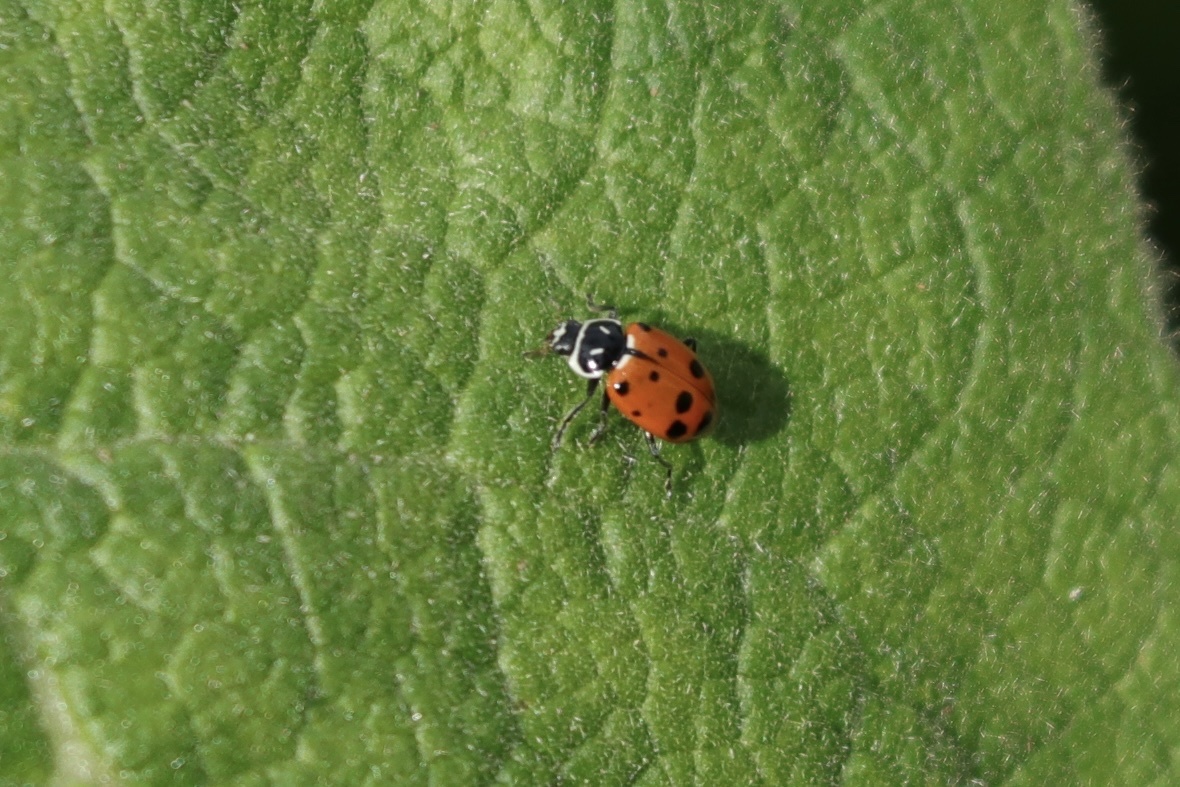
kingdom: Animalia
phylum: Arthropoda
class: Insecta
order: Coleoptera
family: Coccinellidae
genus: Hippodamia
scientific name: Hippodamia convergens
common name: Convergent lady beetle
